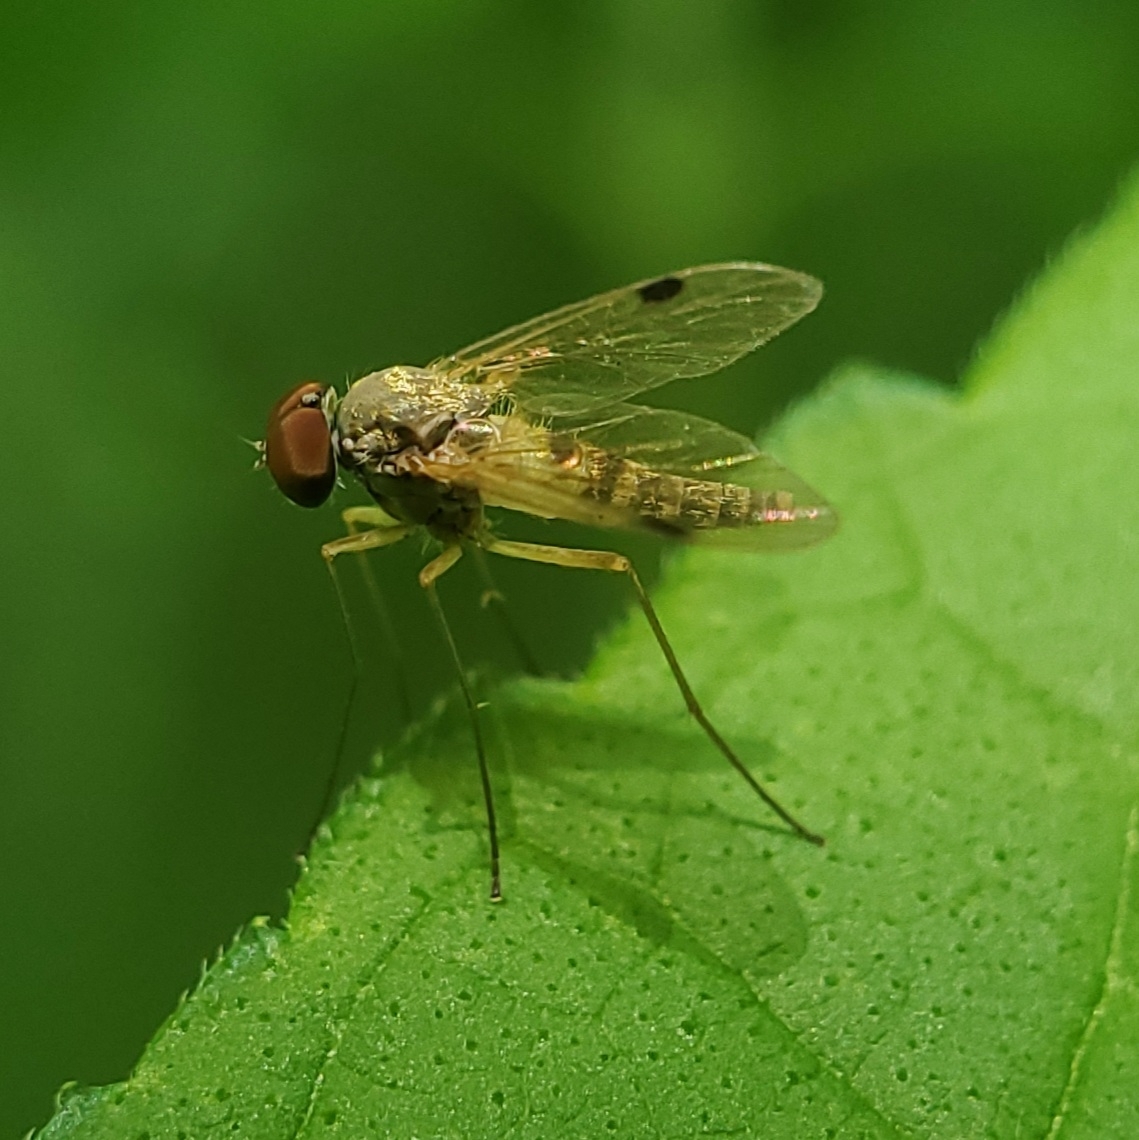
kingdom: Animalia
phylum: Arthropoda
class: Insecta
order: Diptera
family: Rhagionidae
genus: Chrysopilus
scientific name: Chrysopilus modestus
